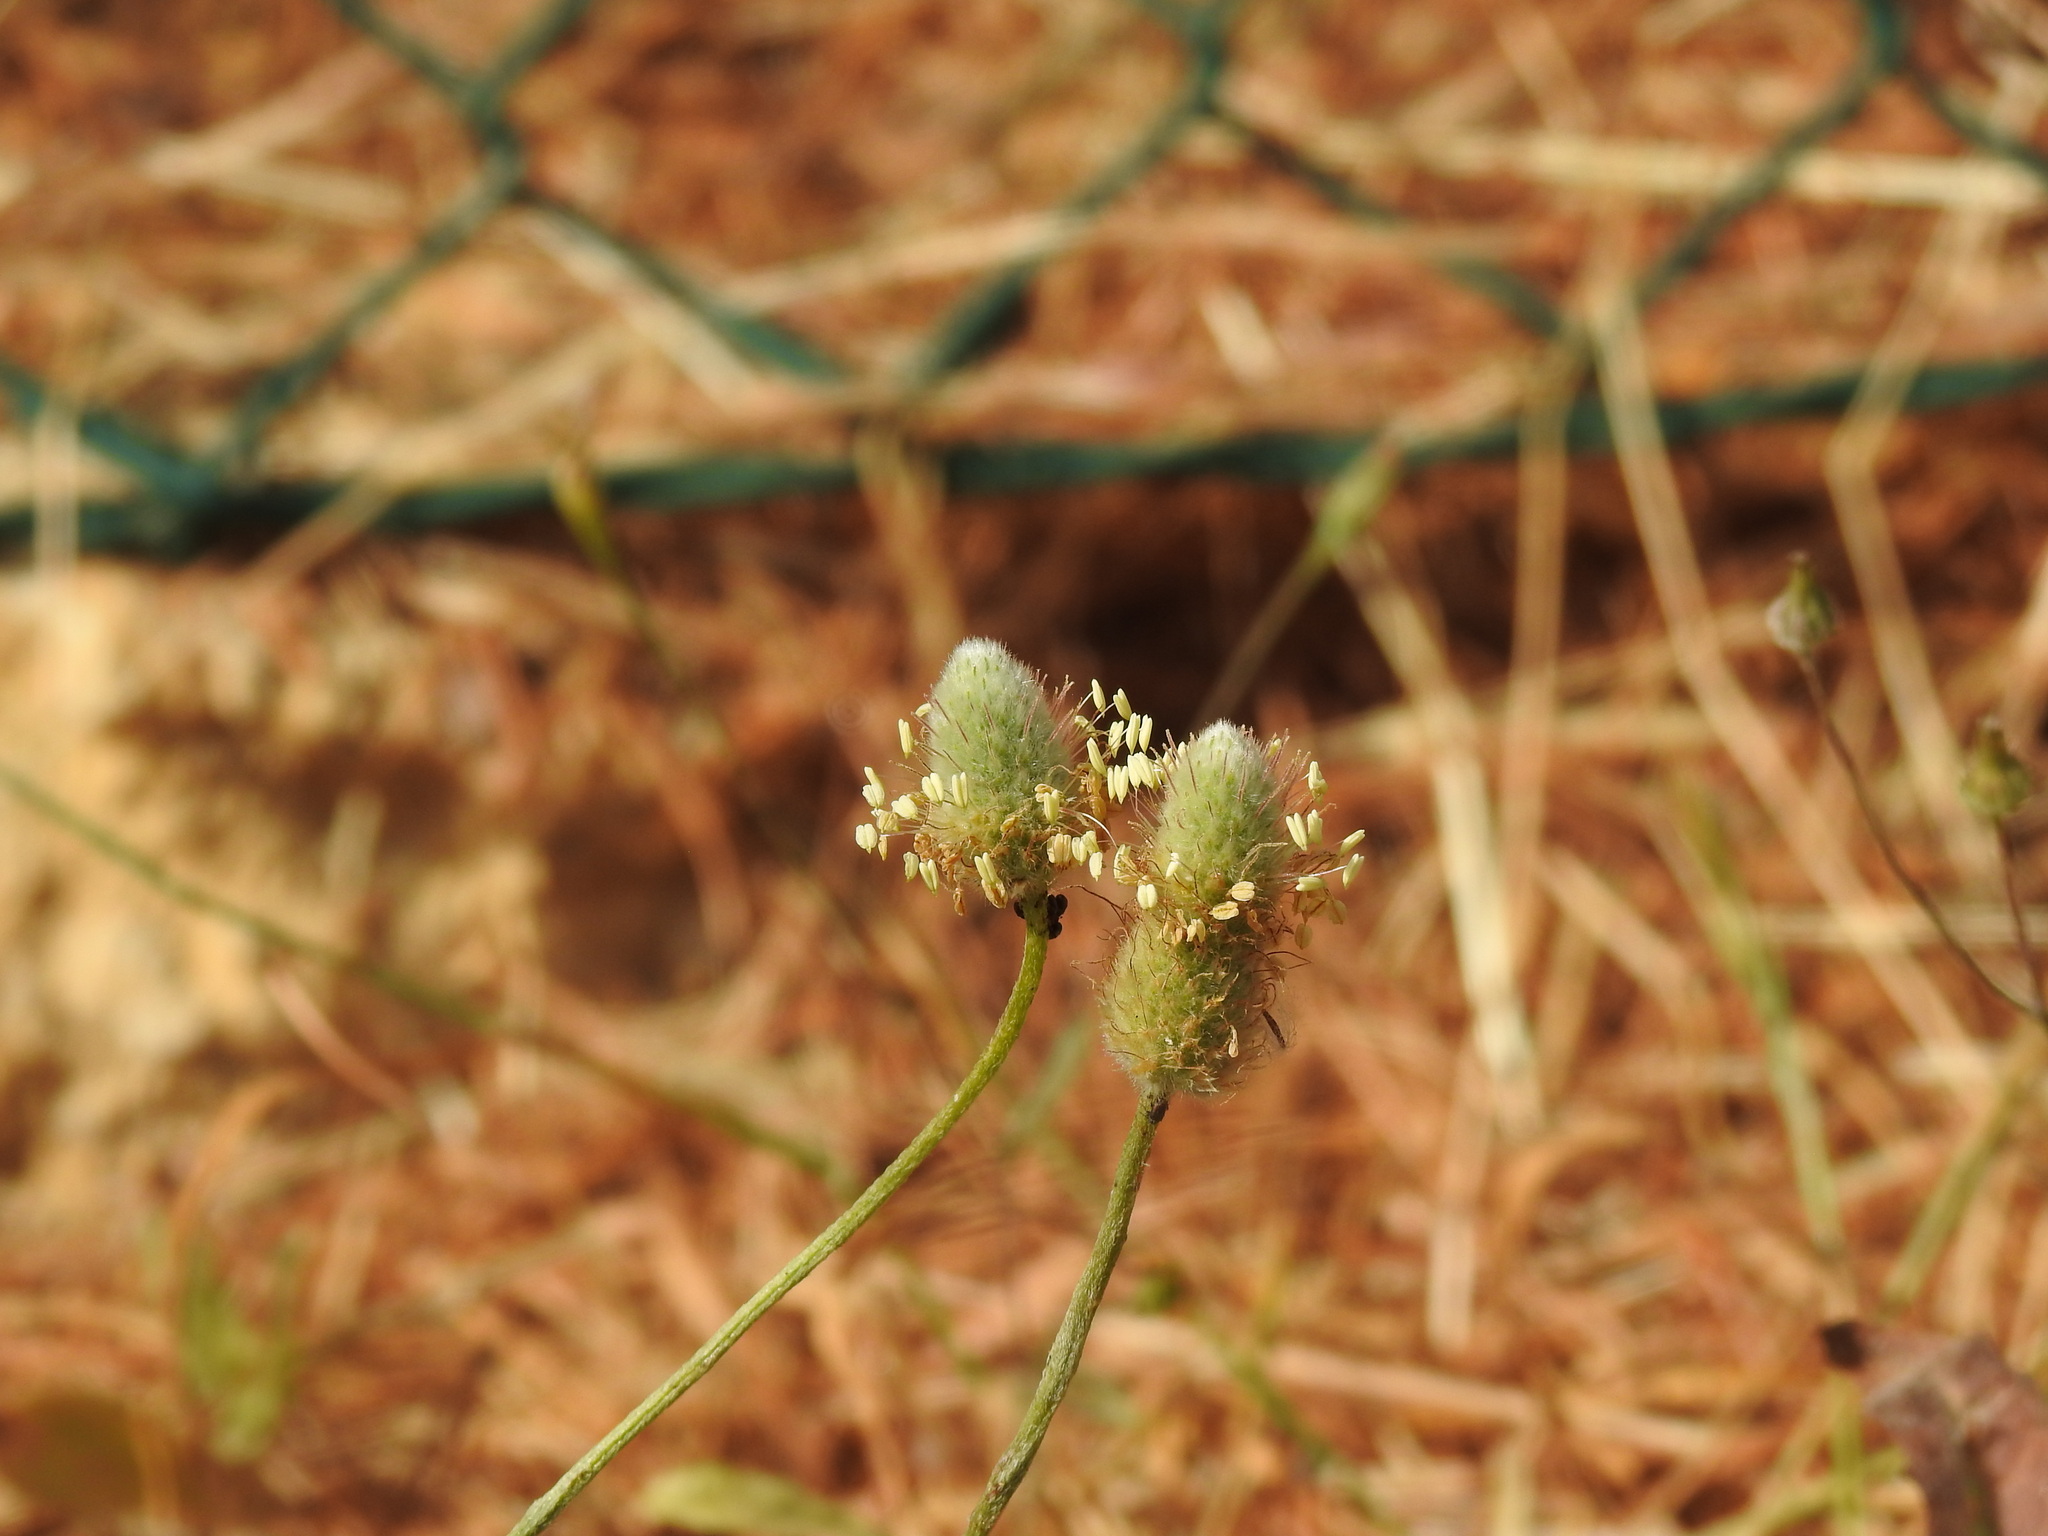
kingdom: Plantae
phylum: Tracheophyta
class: Magnoliopsida
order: Lamiales
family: Plantaginaceae
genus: Plantago
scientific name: Plantago lagopus
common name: Hare-foot plantain
